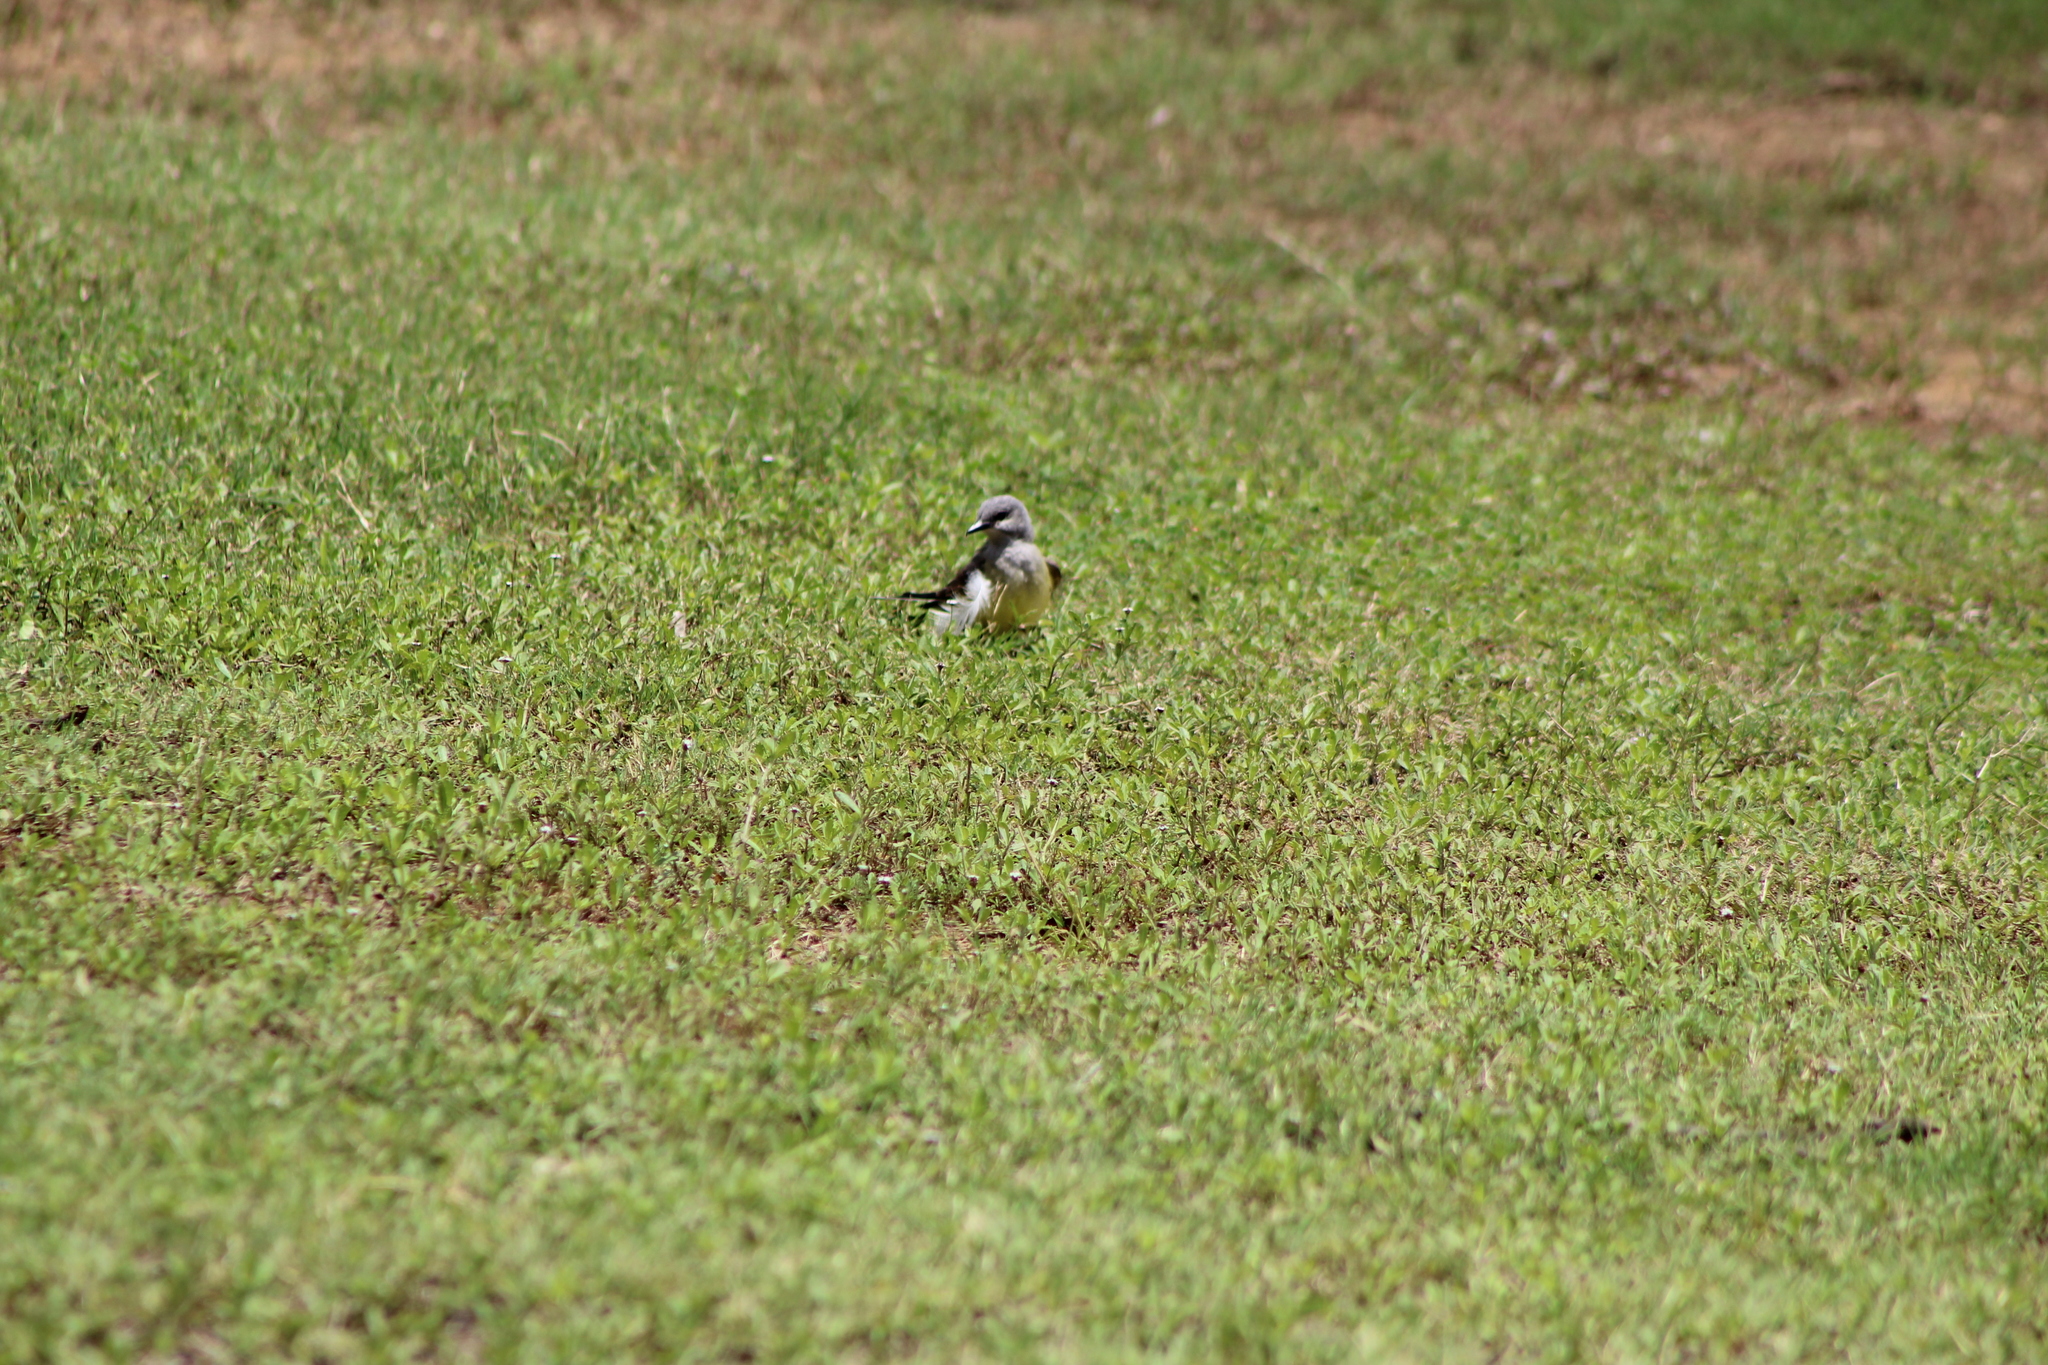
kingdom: Animalia
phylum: Chordata
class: Aves
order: Passeriformes
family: Tyrannidae
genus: Tyrannus
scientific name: Tyrannus verticalis
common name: Western kingbird
